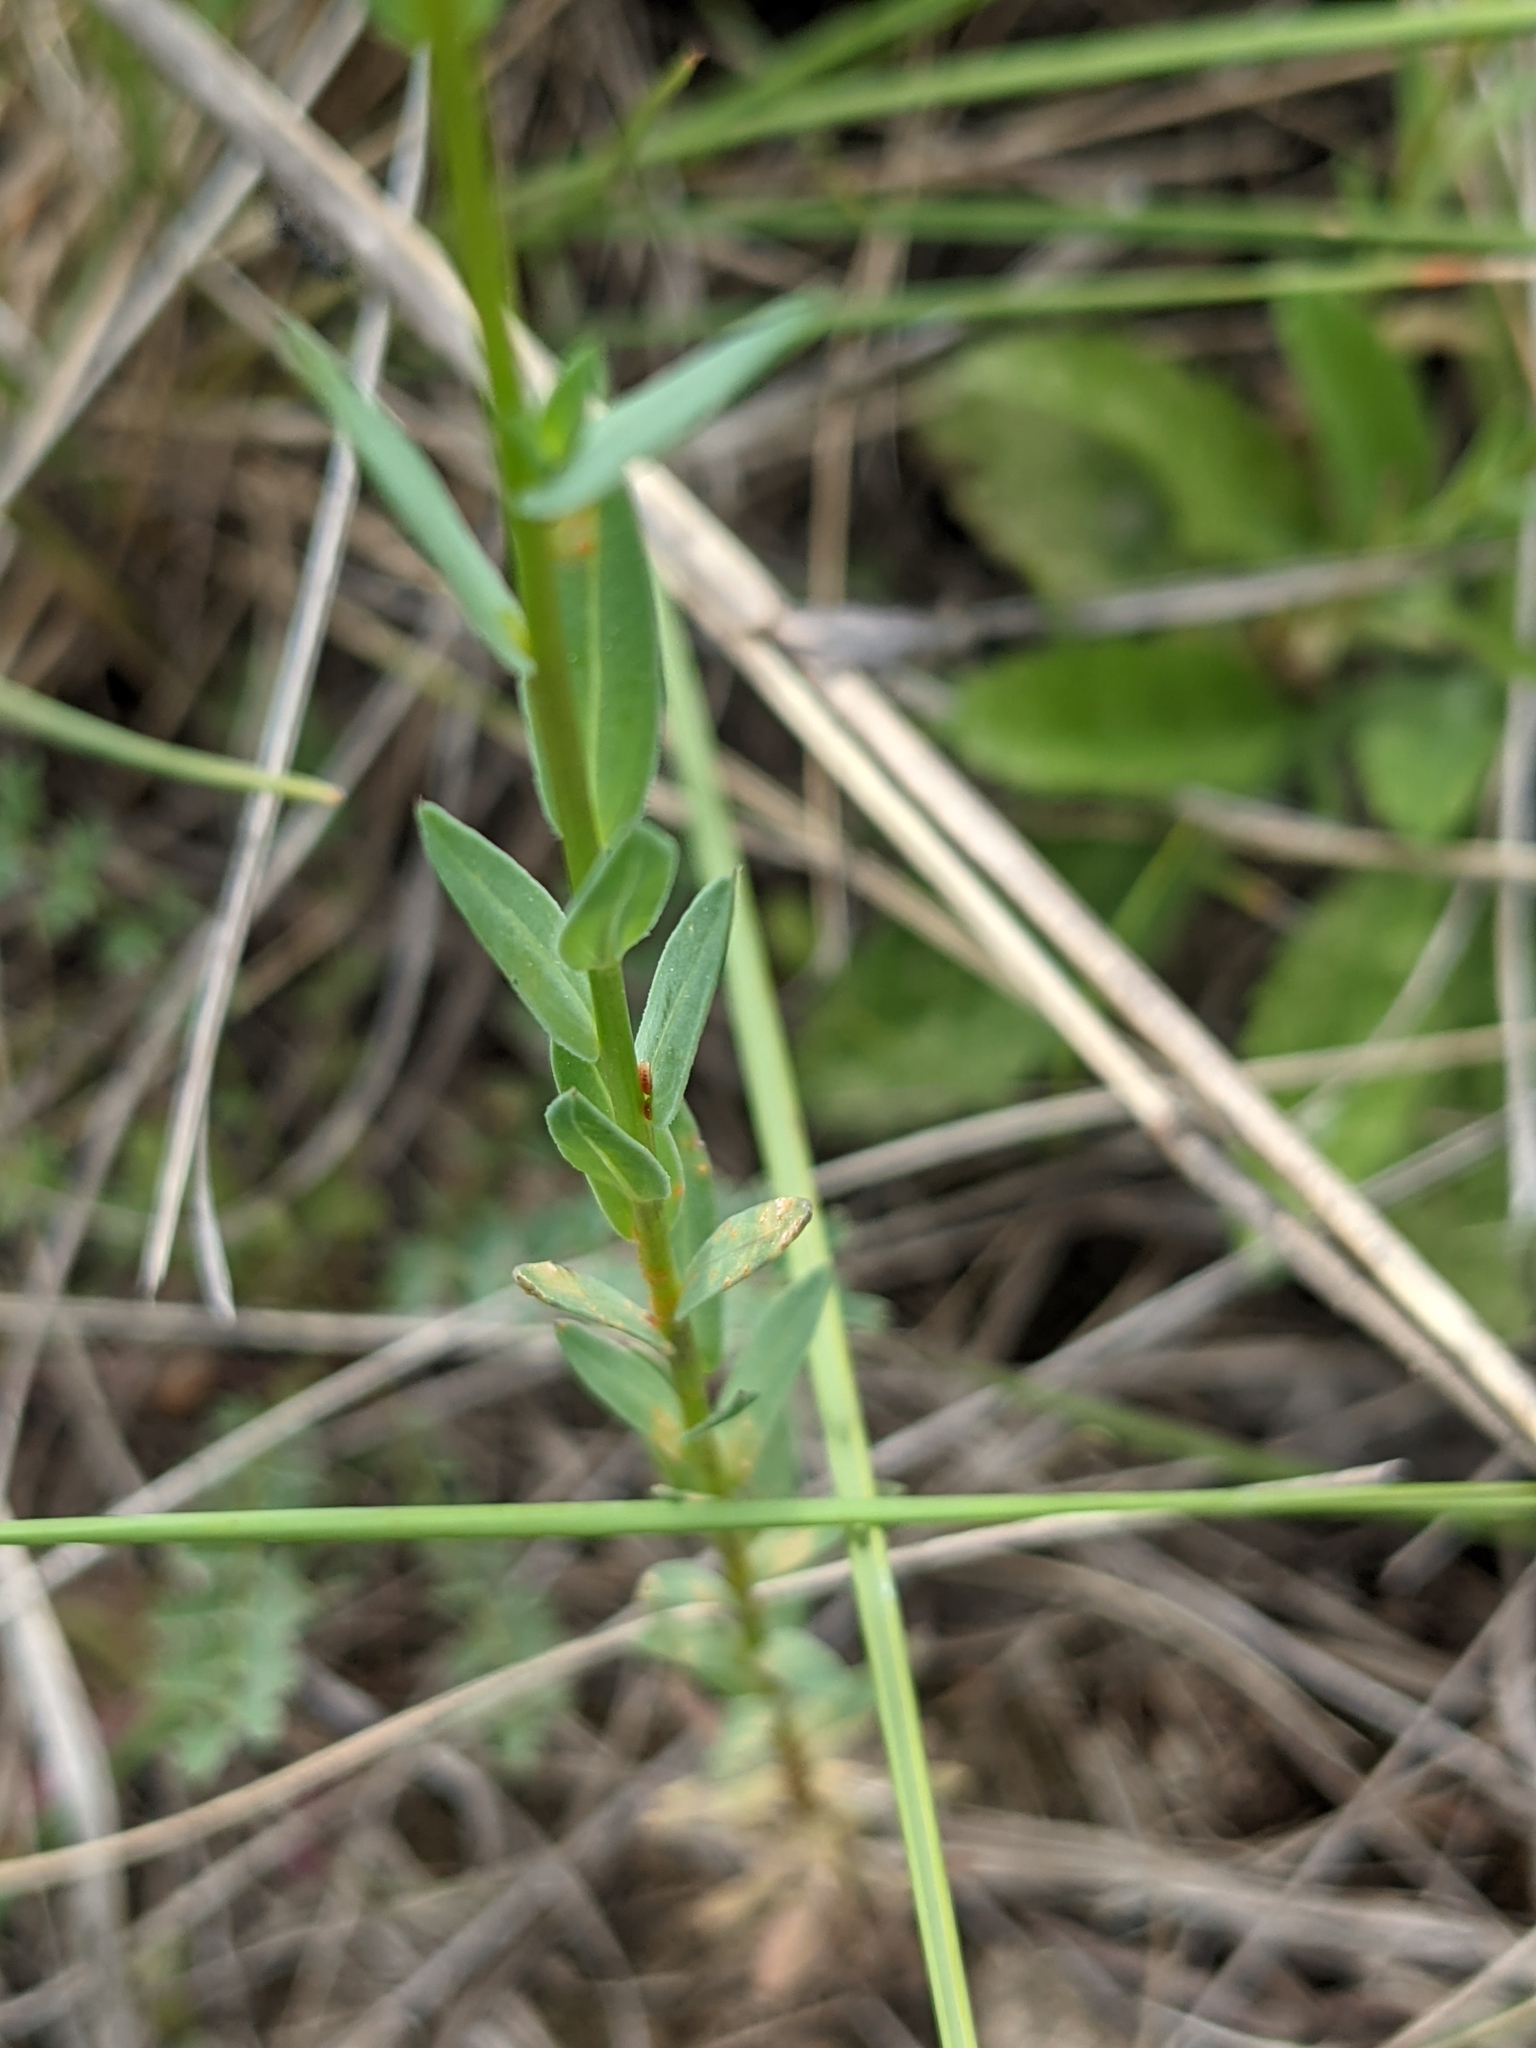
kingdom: Plantae
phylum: Tracheophyta
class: Magnoliopsida
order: Malpighiales
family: Linaceae
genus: Linum
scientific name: Linum strictum
